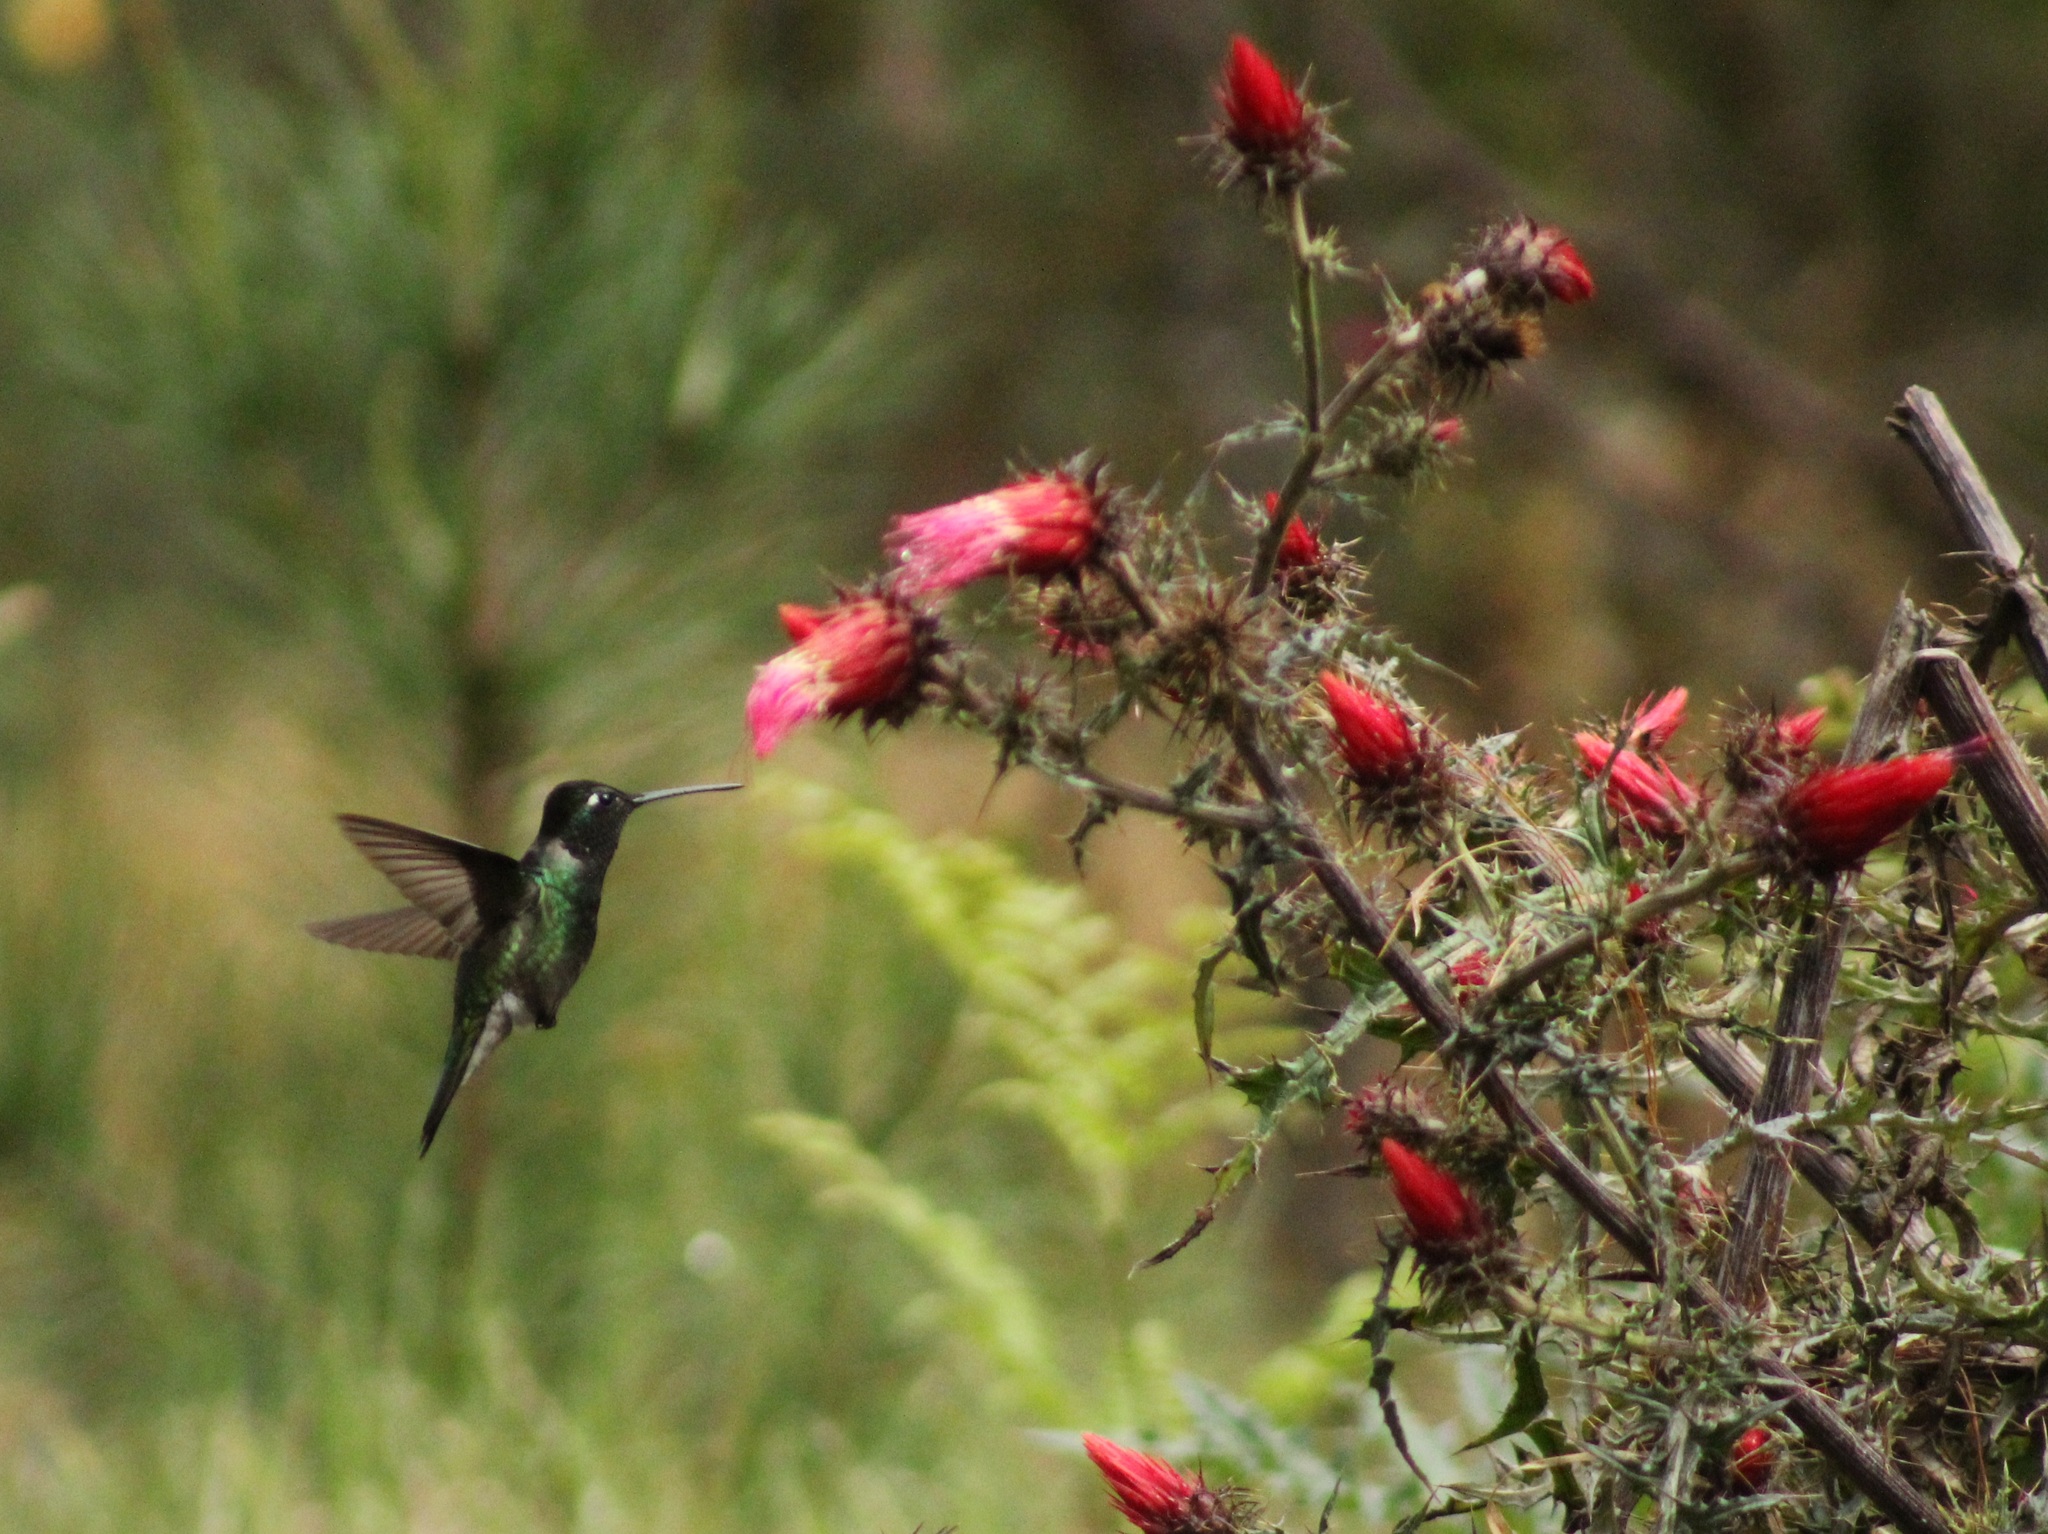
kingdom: Animalia
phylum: Chordata
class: Aves
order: Apodiformes
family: Trochilidae
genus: Eugenes
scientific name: Eugenes fulgens
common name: Magnificent hummingbird
